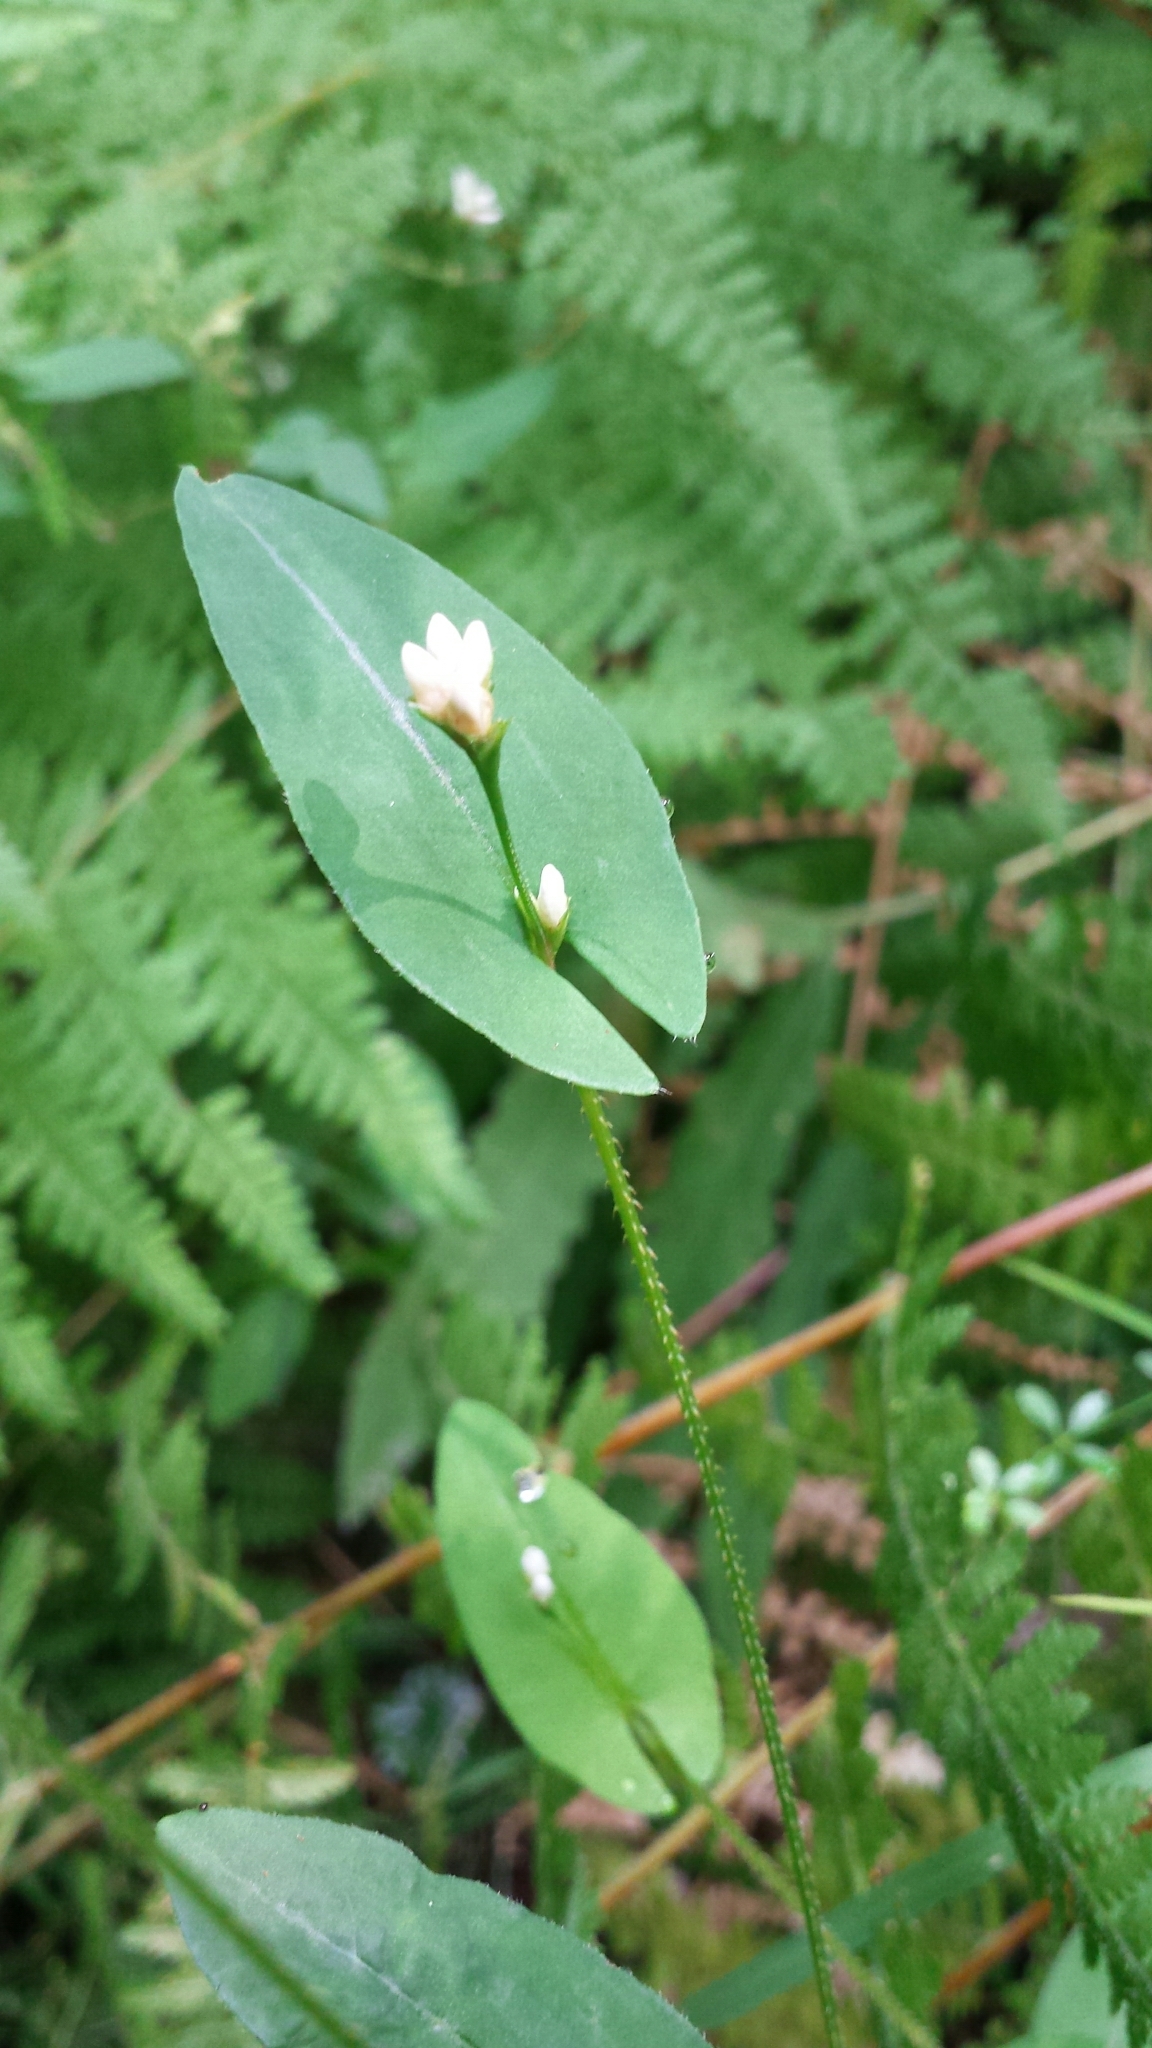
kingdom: Plantae
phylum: Tracheophyta
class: Magnoliopsida
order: Caryophyllales
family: Polygonaceae
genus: Persicaria
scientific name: Persicaria sagittata
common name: American tearthumb
